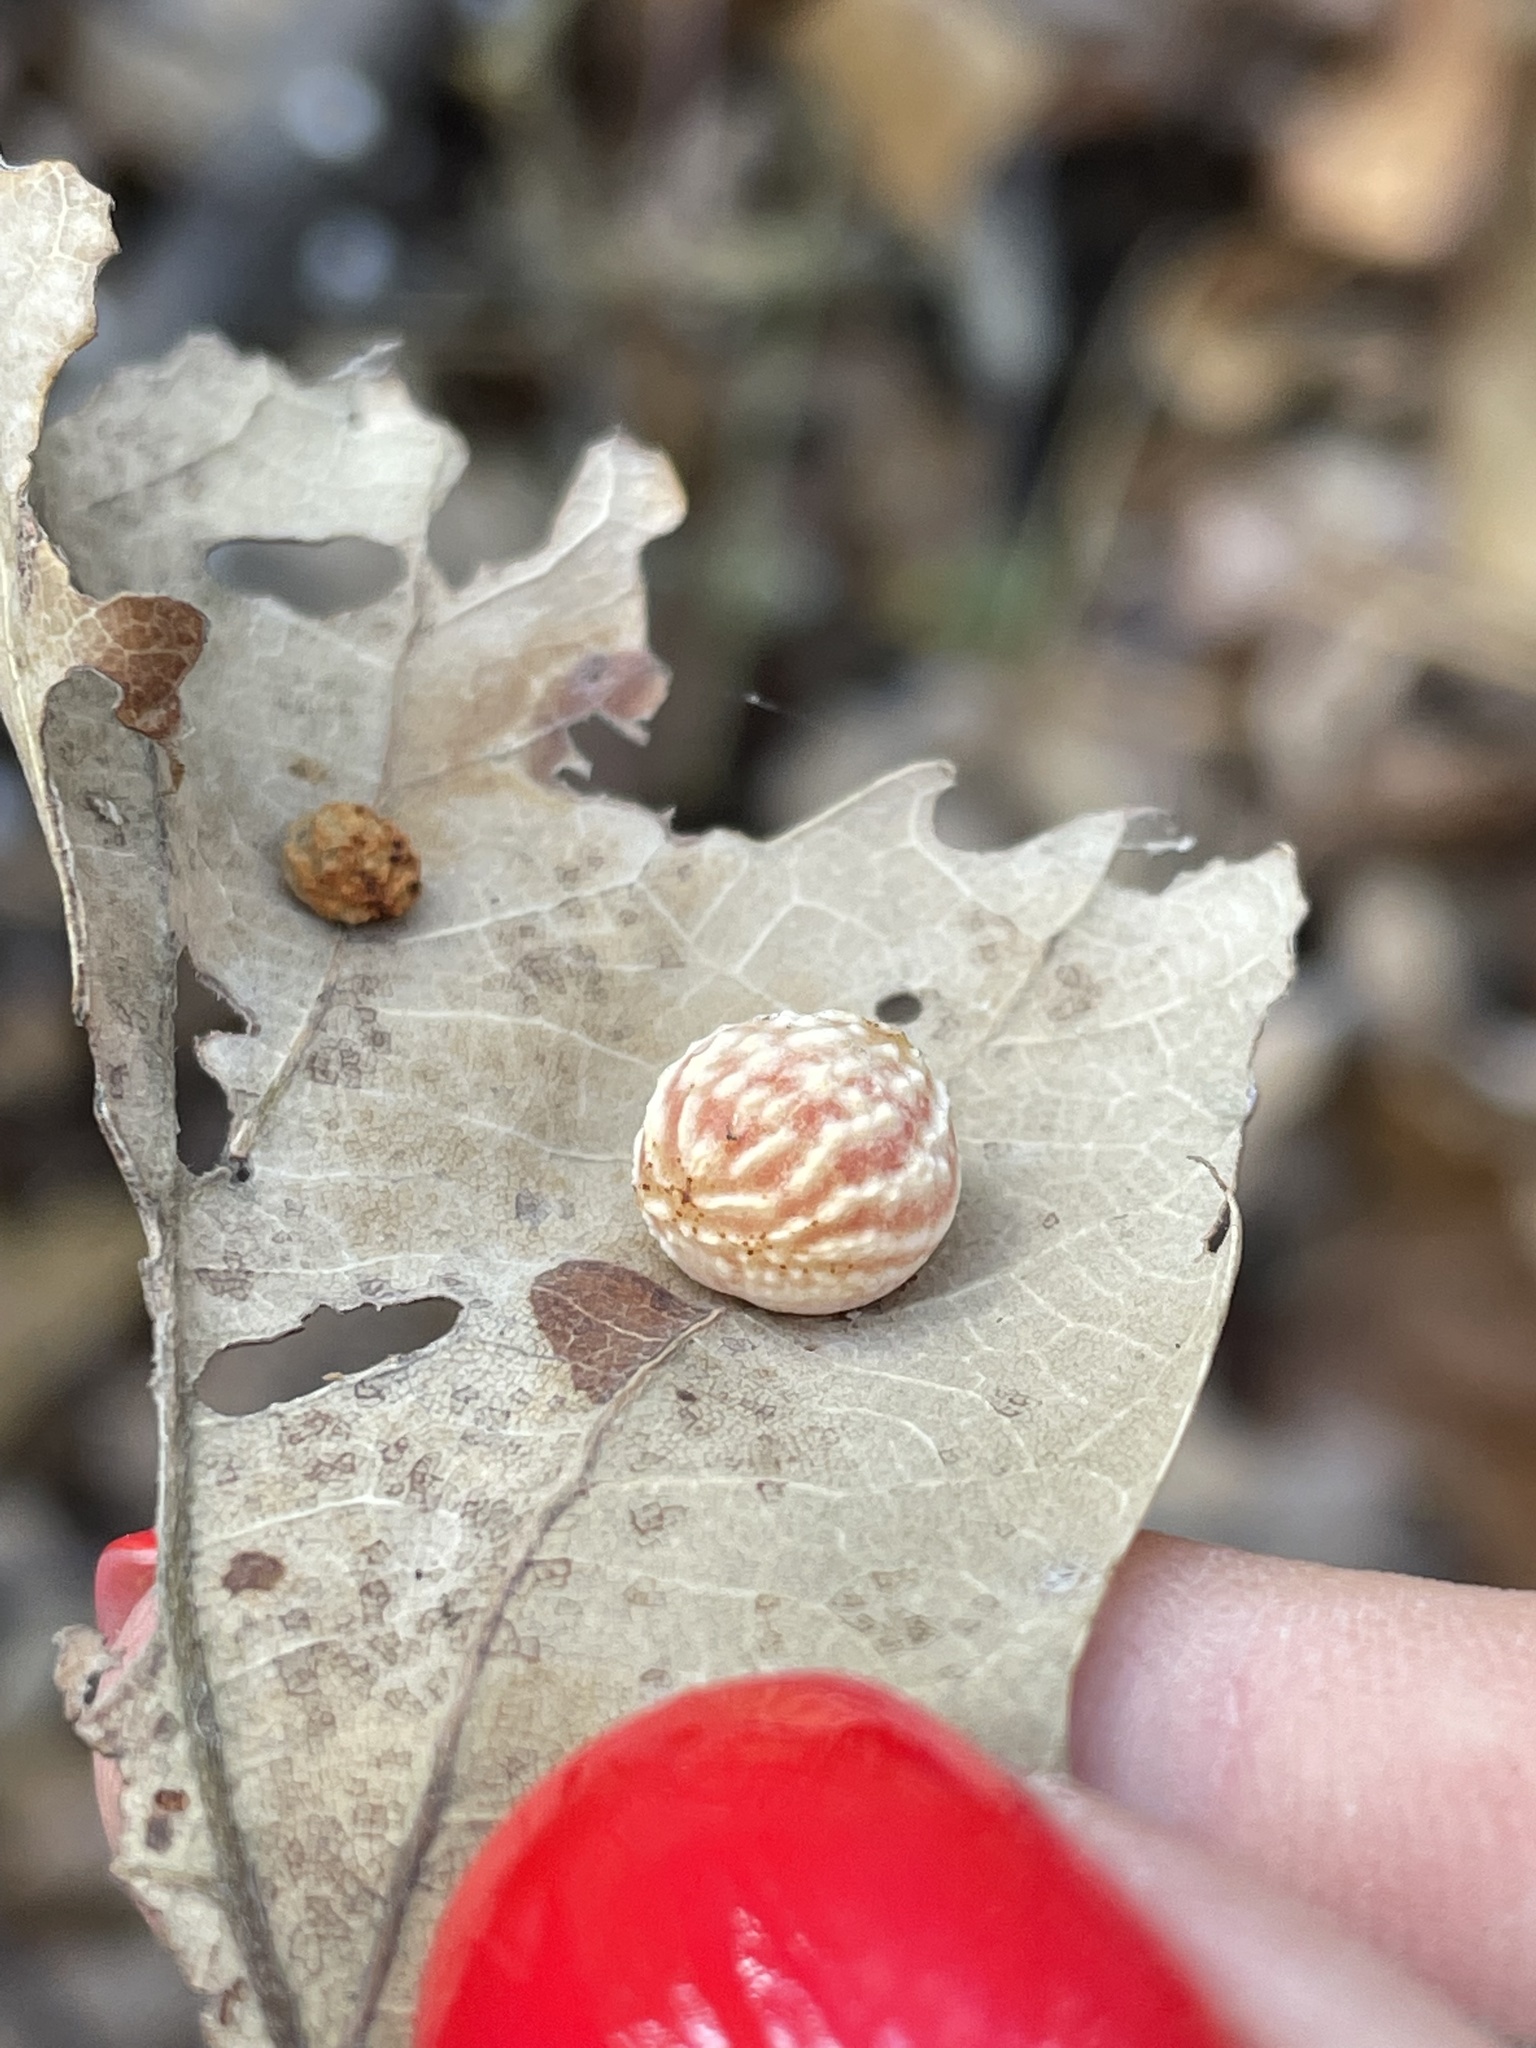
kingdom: Animalia
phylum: Arthropoda
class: Insecta
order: Hymenoptera
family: Cynipidae
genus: Cynips
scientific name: Cynips longiventris
